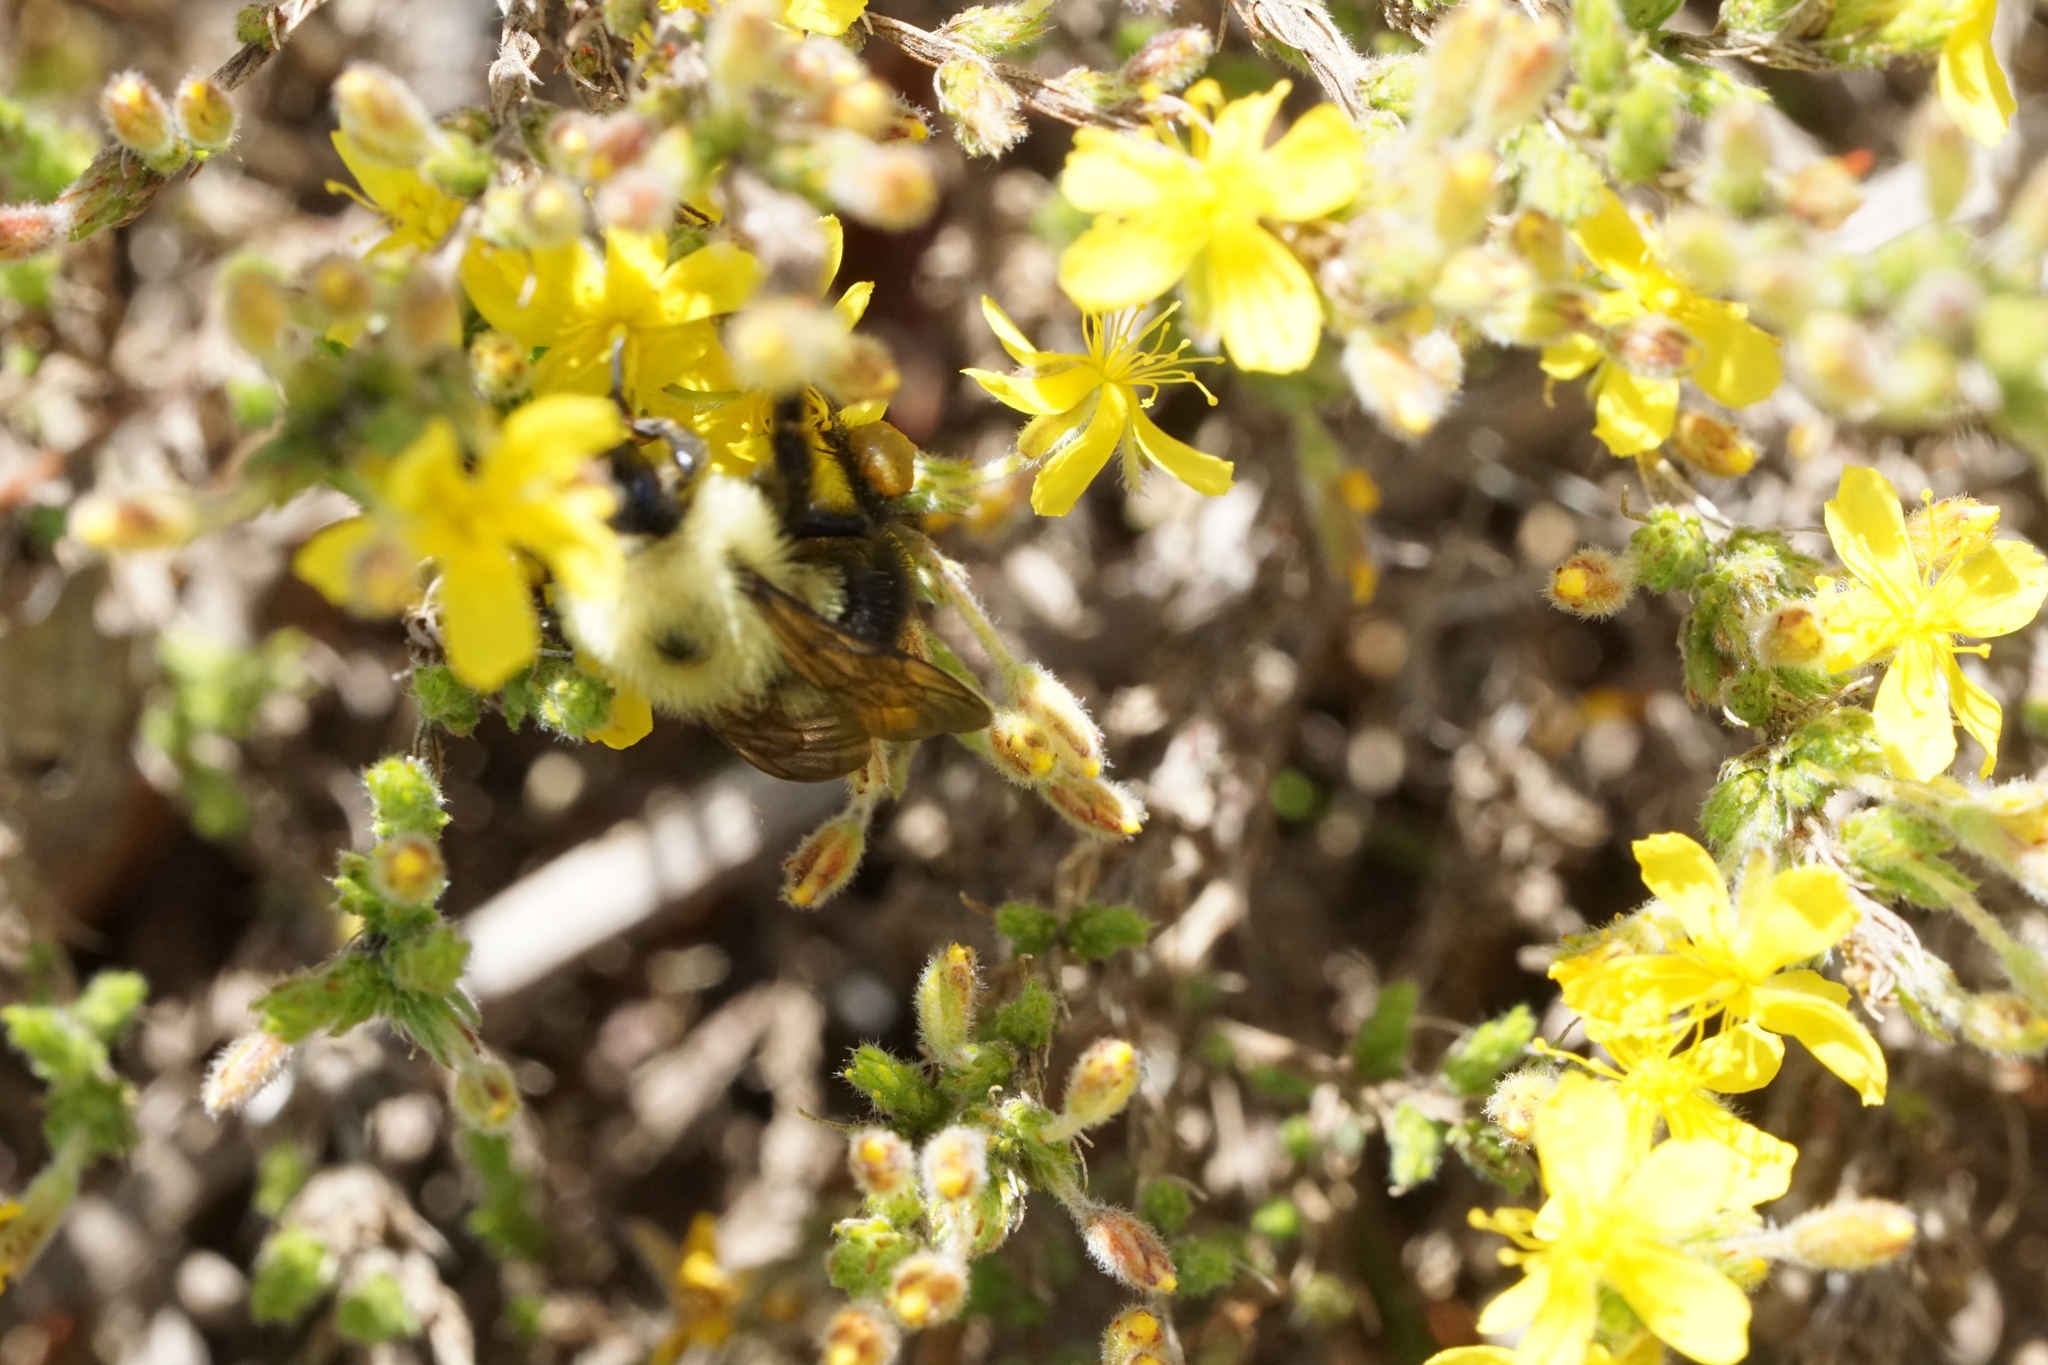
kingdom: Animalia
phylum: Arthropoda
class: Insecta
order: Hymenoptera
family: Apidae
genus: Bombus
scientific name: Bombus bimaculatus
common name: Two-spotted bumble bee
